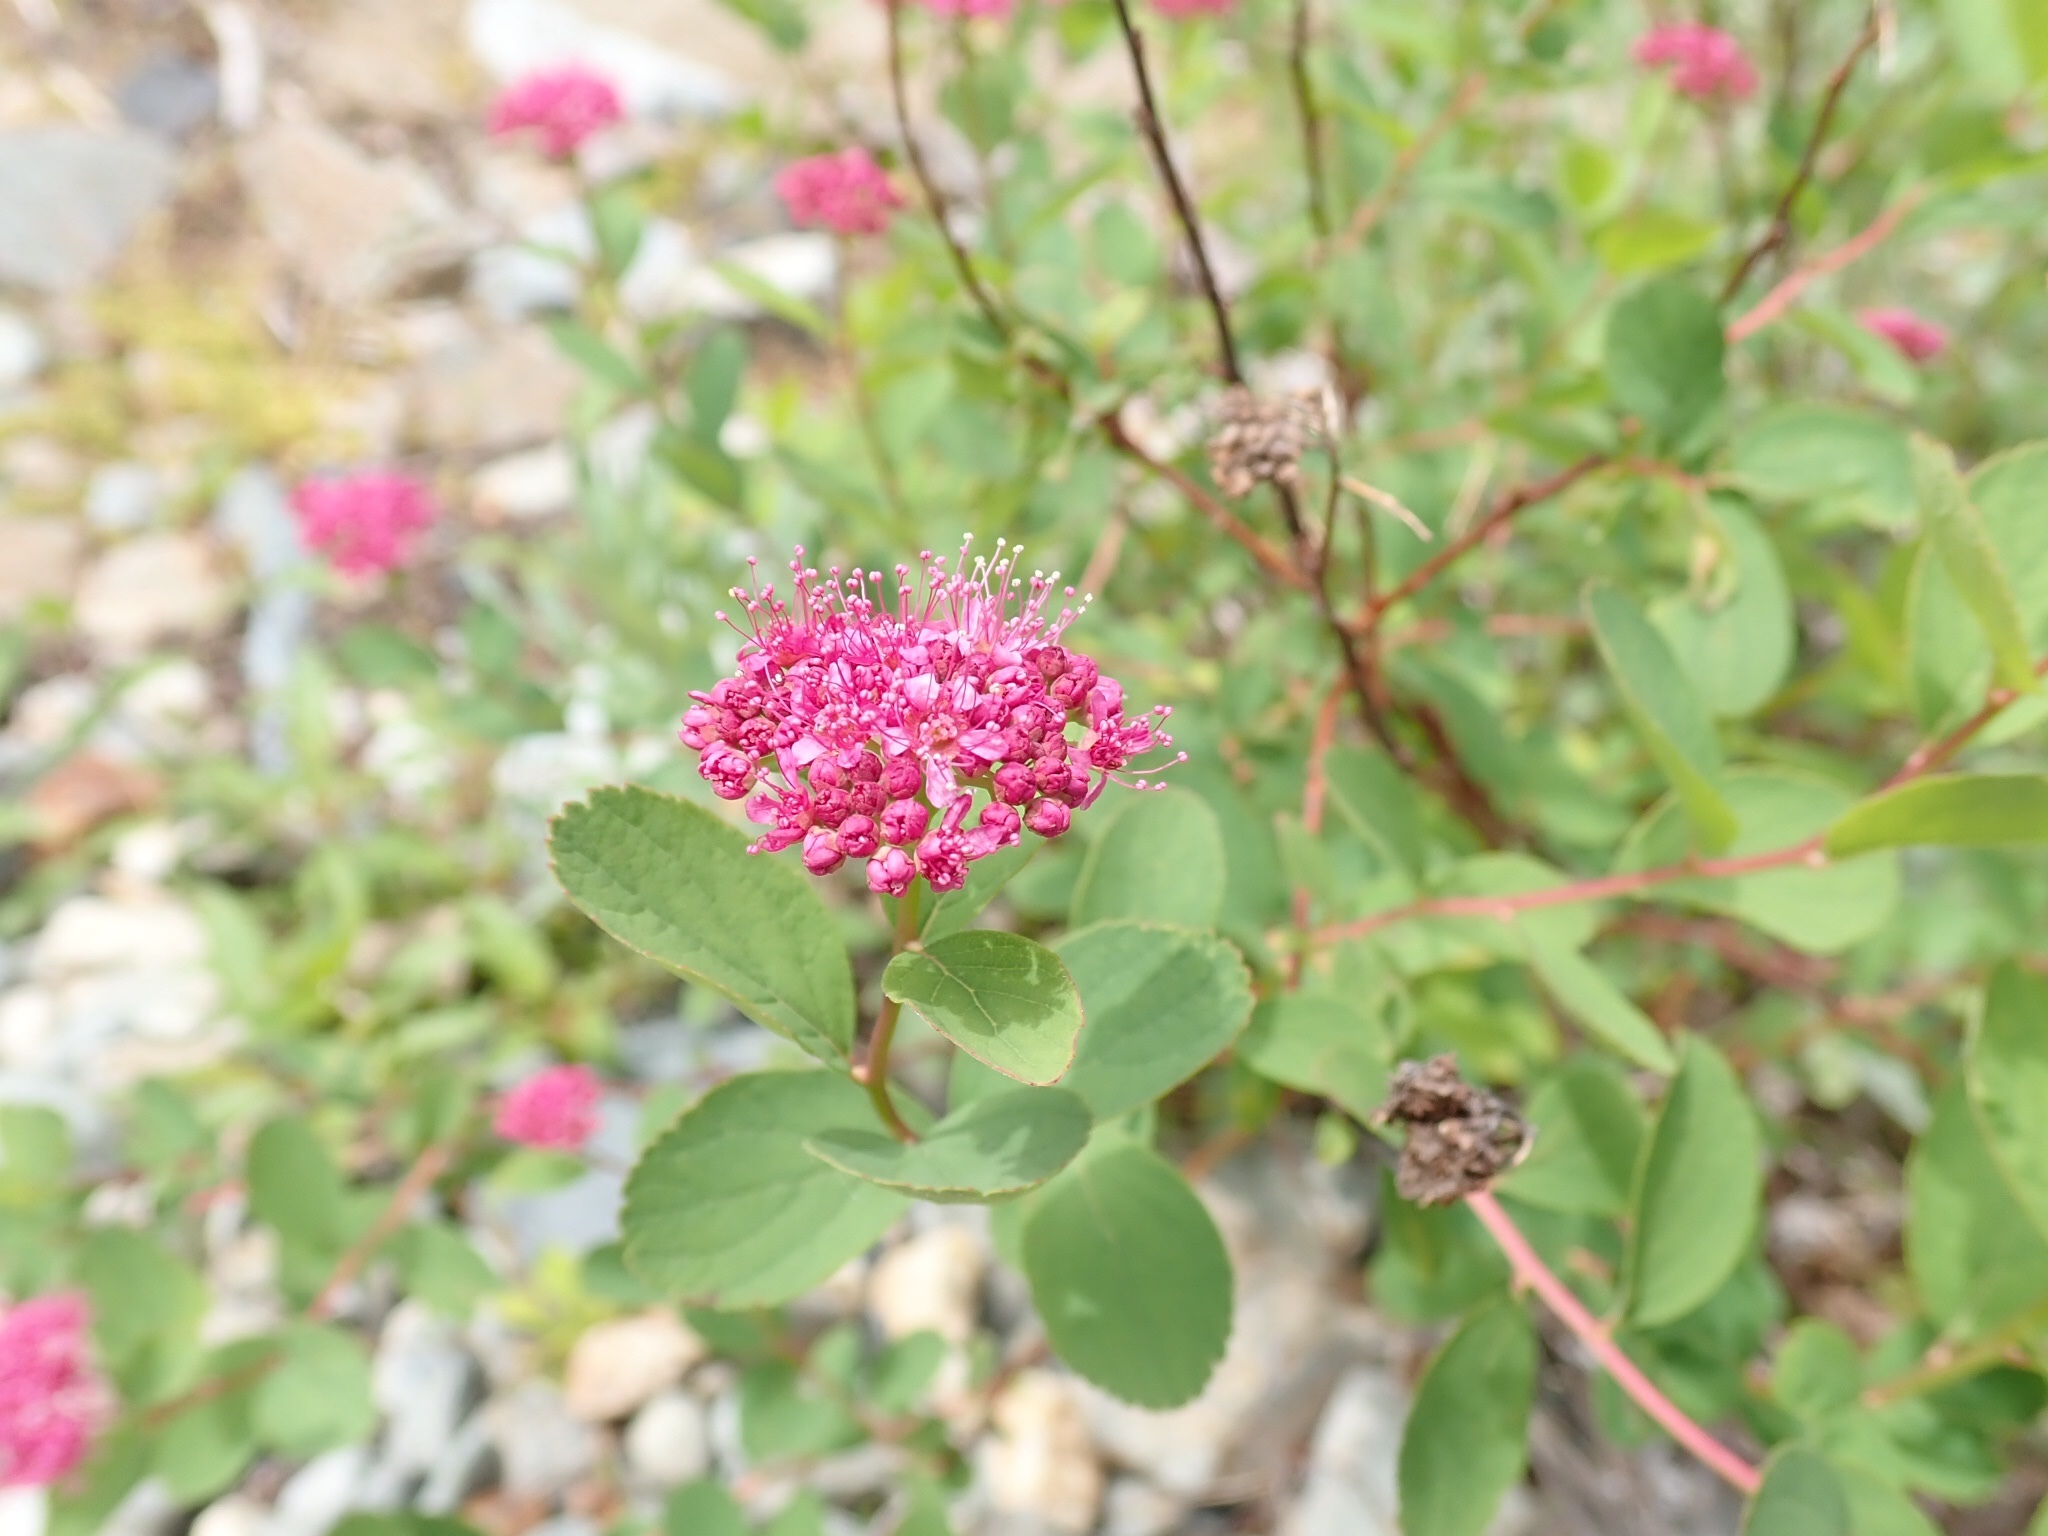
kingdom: Plantae
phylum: Tracheophyta
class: Magnoliopsida
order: Rosales
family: Rosaceae
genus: Spiraea
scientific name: Spiraea splendens
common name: Subalpine meadowsweet
